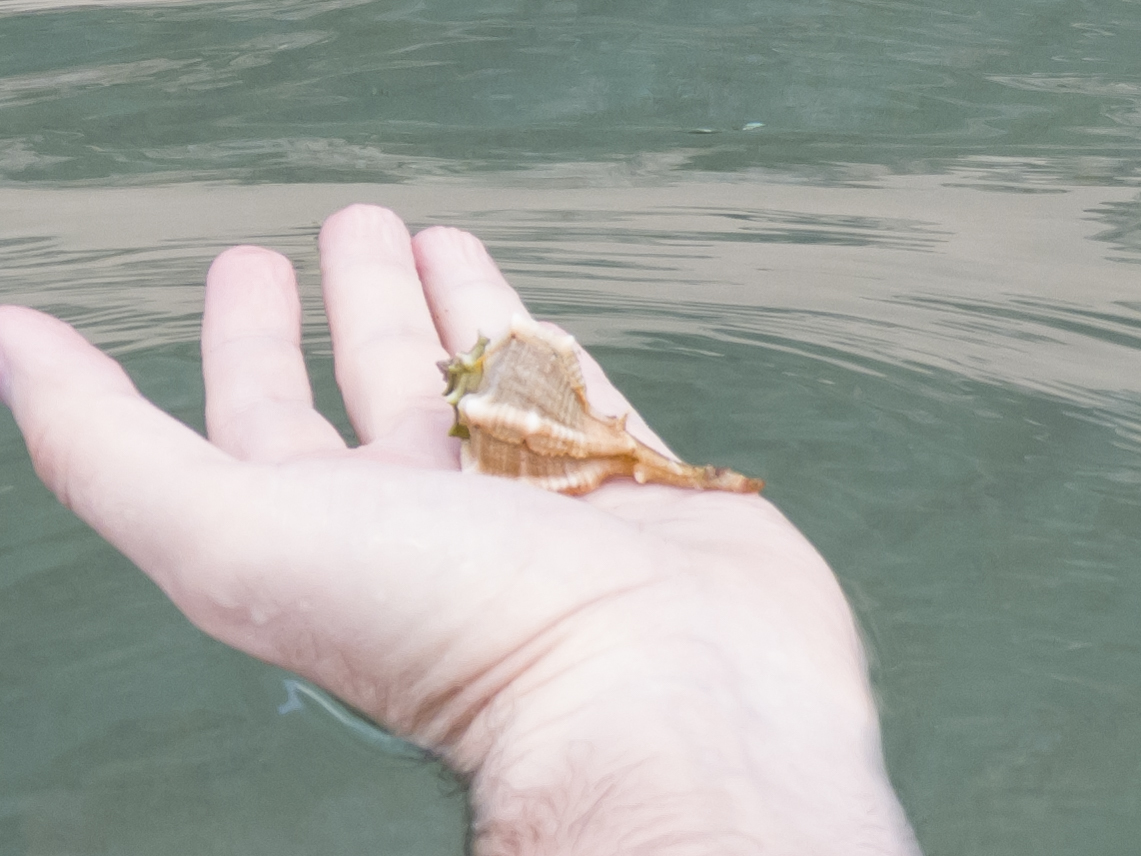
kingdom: Animalia
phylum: Mollusca
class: Gastropoda
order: Neogastropoda
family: Muricidae
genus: Bolinus
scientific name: Bolinus brandaris
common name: Dye murex
